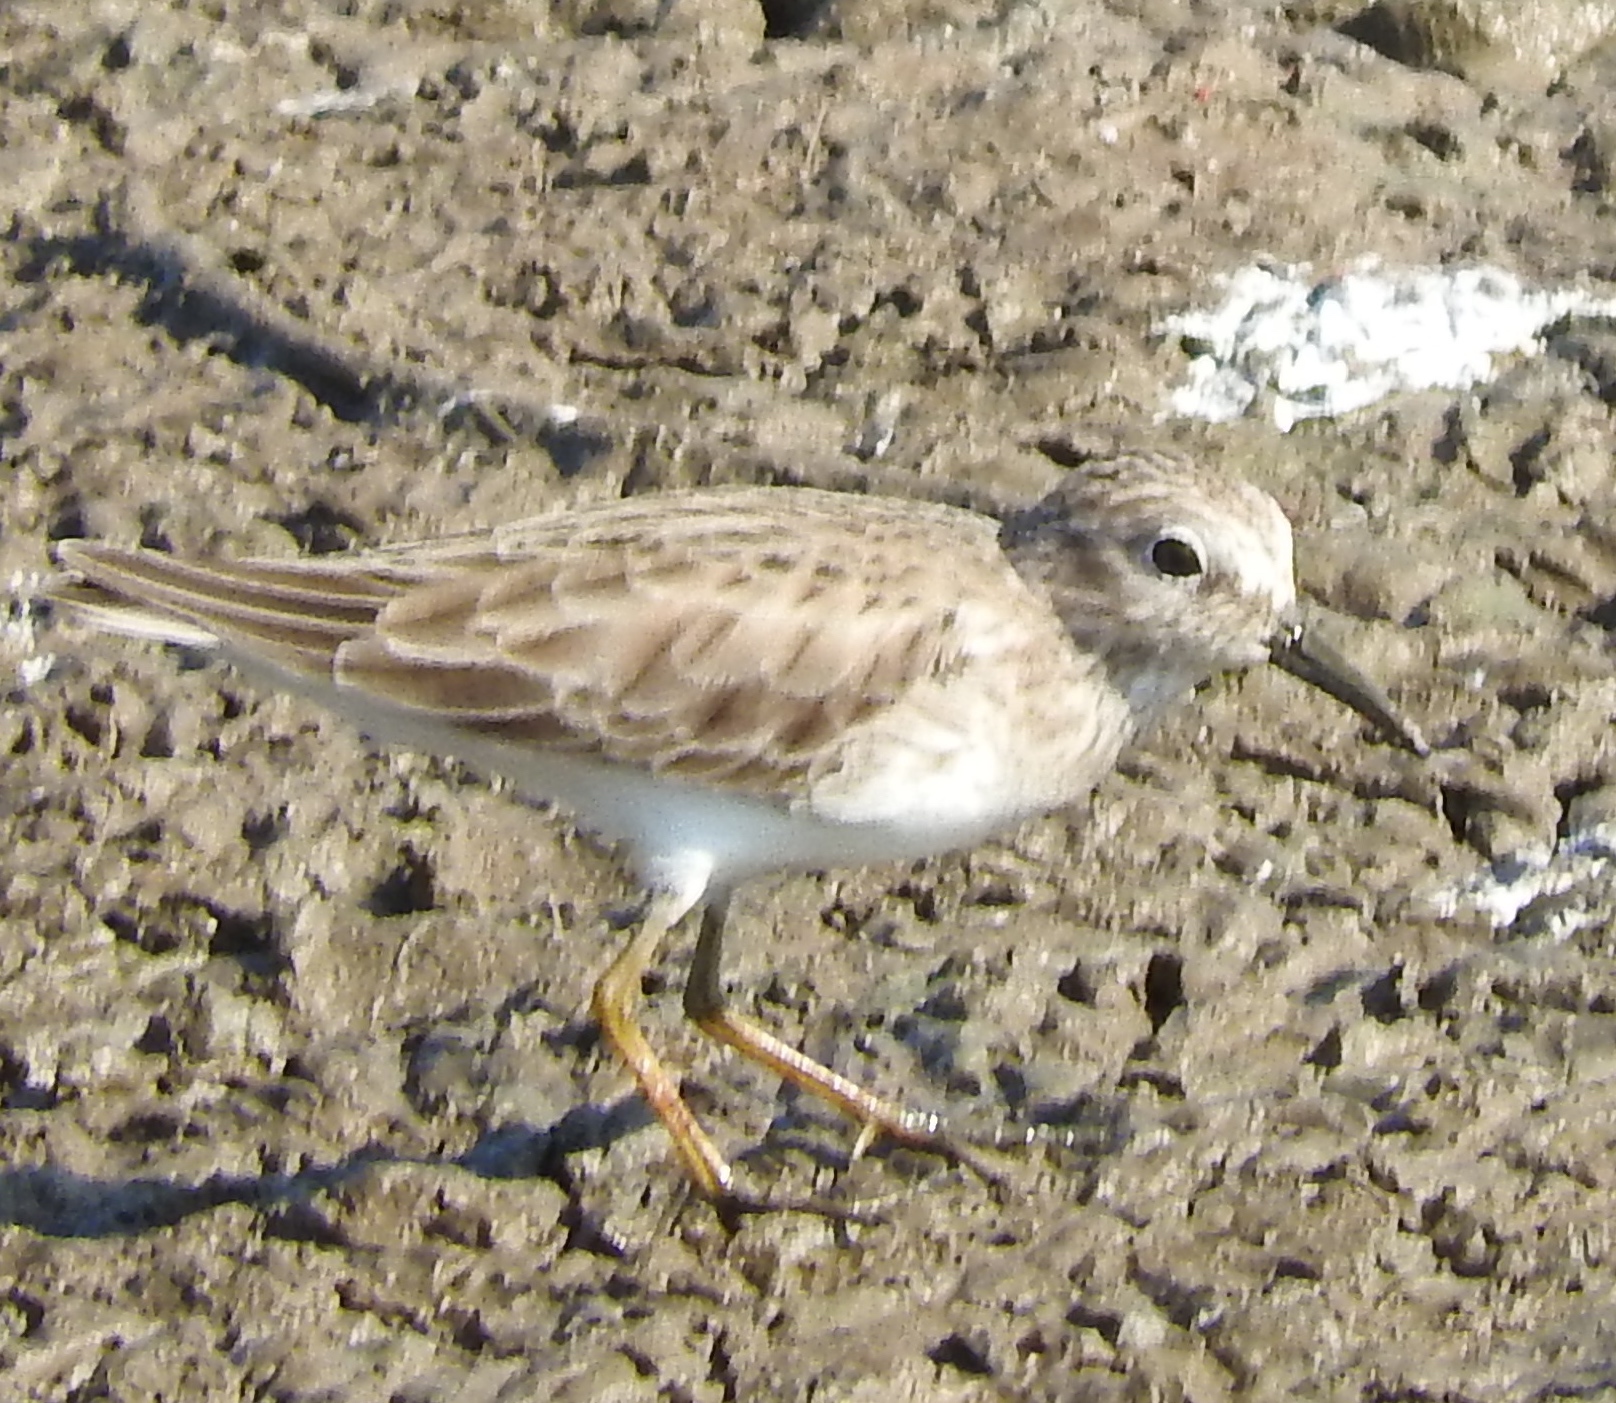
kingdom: Animalia
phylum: Chordata
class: Aves
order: Charadriiformes
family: Scolopacidae
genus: Calidris
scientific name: Calidris minutilla
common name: Least sandpiper
